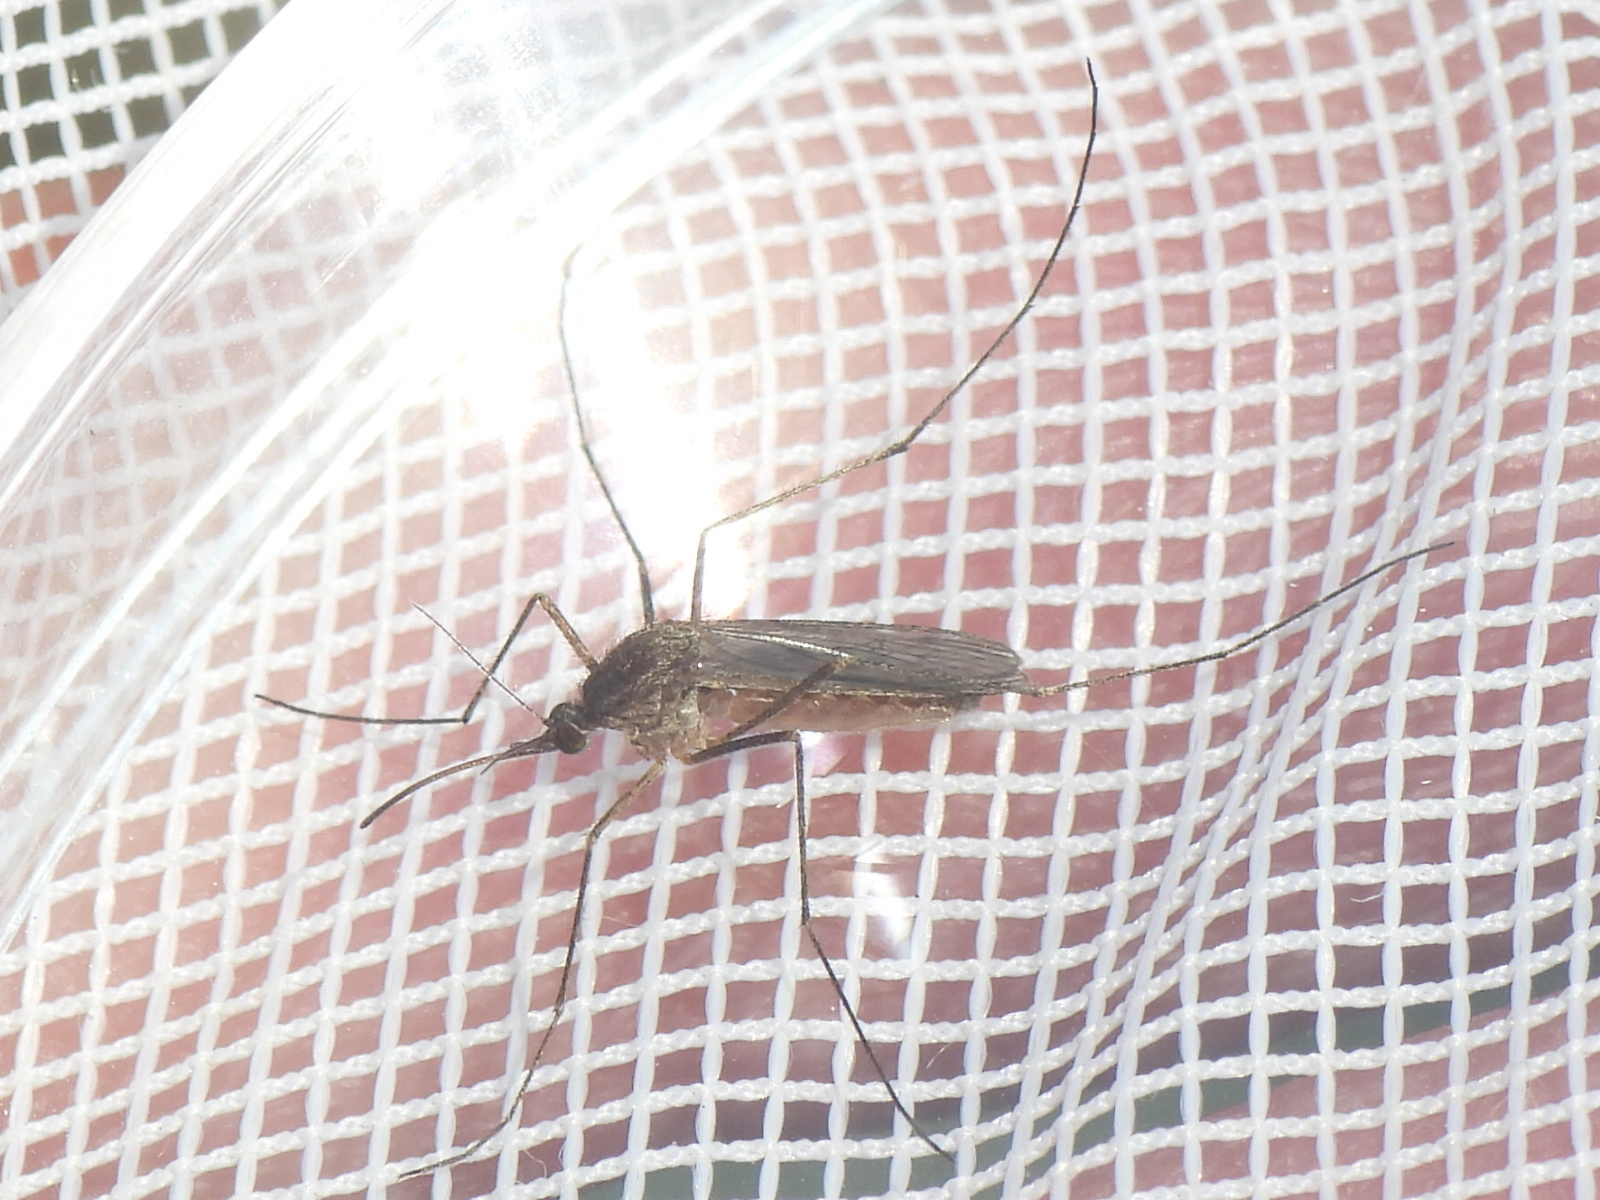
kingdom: Animalia
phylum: Arthropoda
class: Insecta
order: Diptera
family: Culicidae
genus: Culiseta
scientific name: Culiseta inornata
